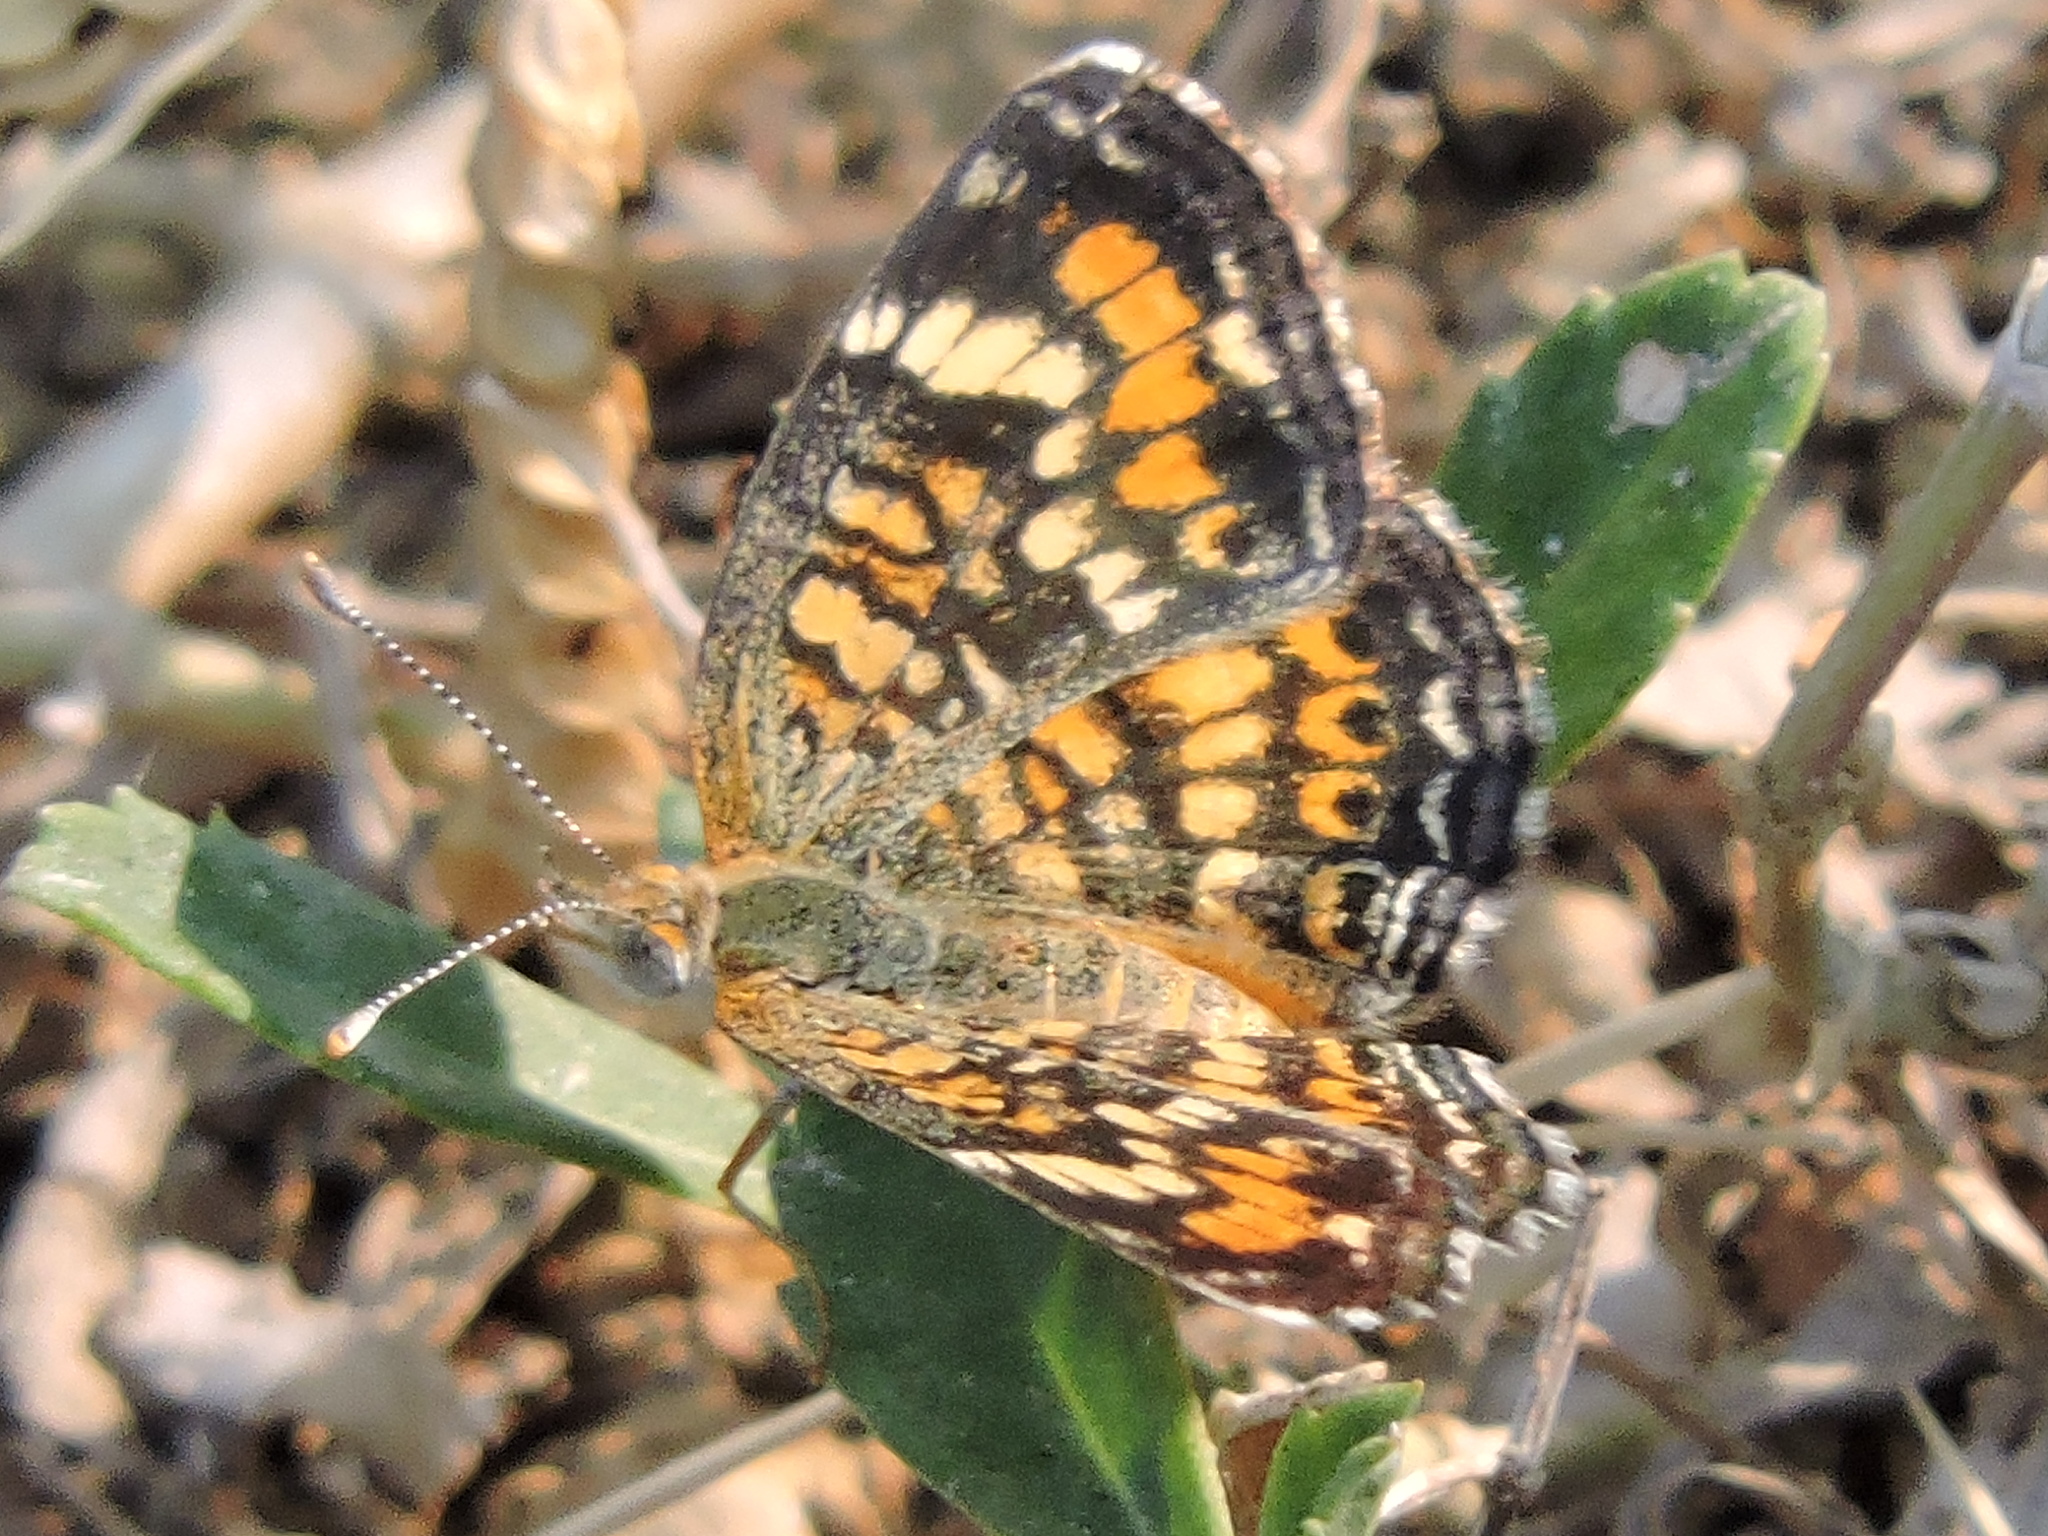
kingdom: Animalia
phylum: Arthropoda
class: Insecta
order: Lepidoptera
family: Nymphalidae
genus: Phyciodes
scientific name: Phyciodes phaon
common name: Phaon crescent
